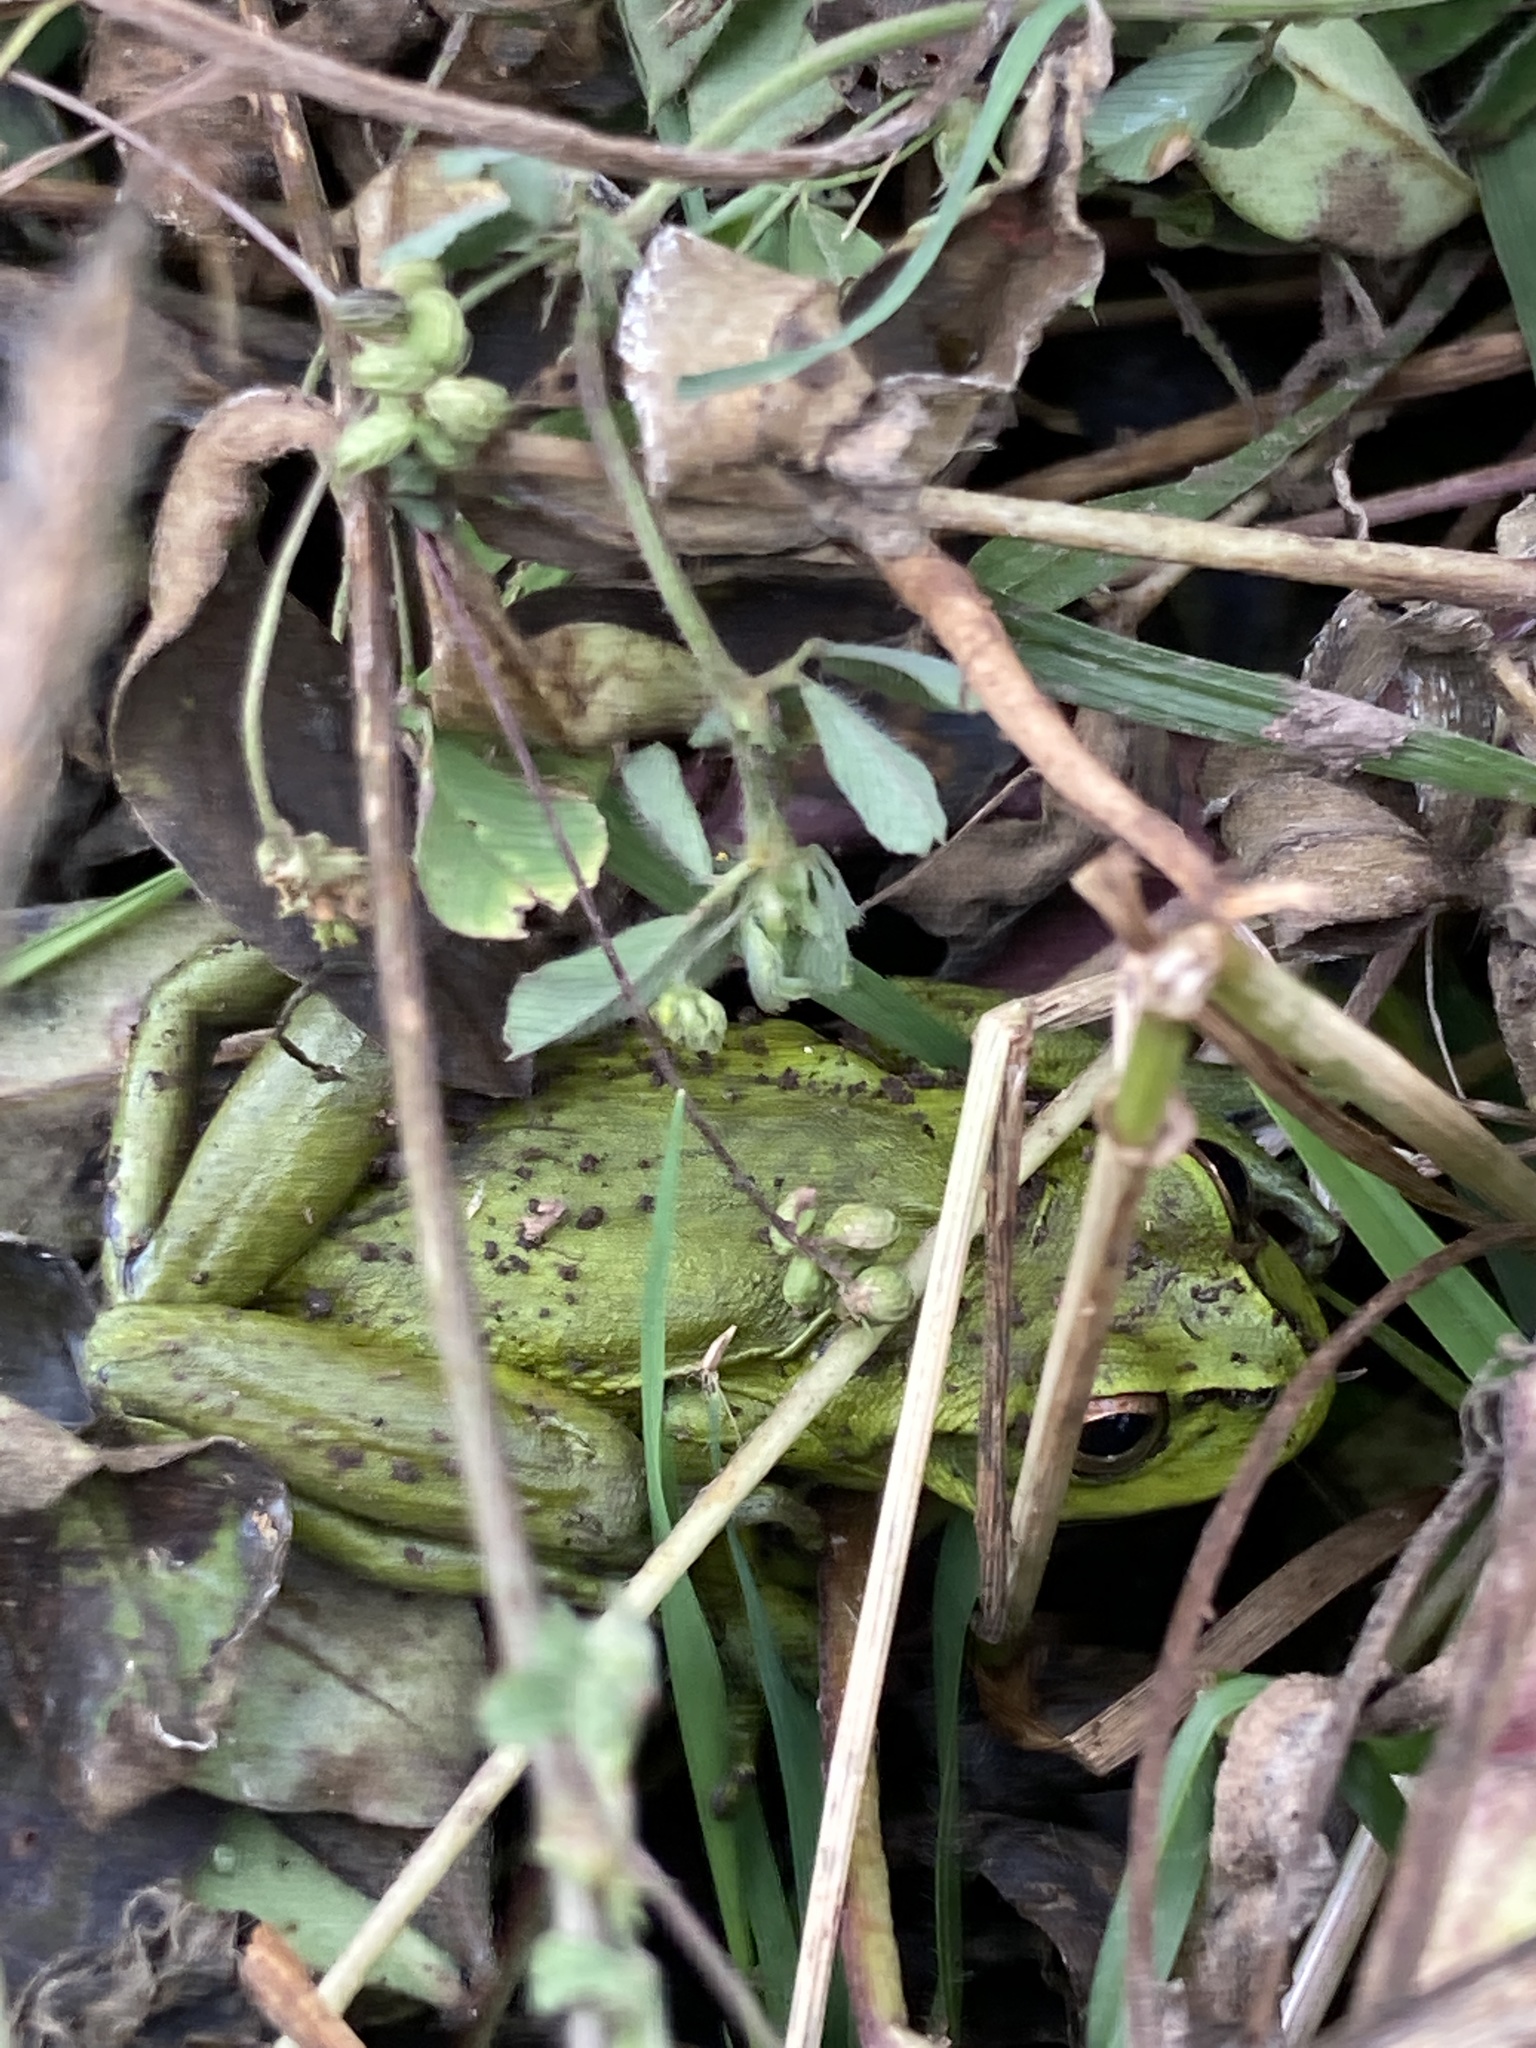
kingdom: Animalia
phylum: Chordata
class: Amphibia
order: Anura
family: Hylidae
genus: Dendropsophus
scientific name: Dendropsophus molitor
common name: Green dotted treefrog
